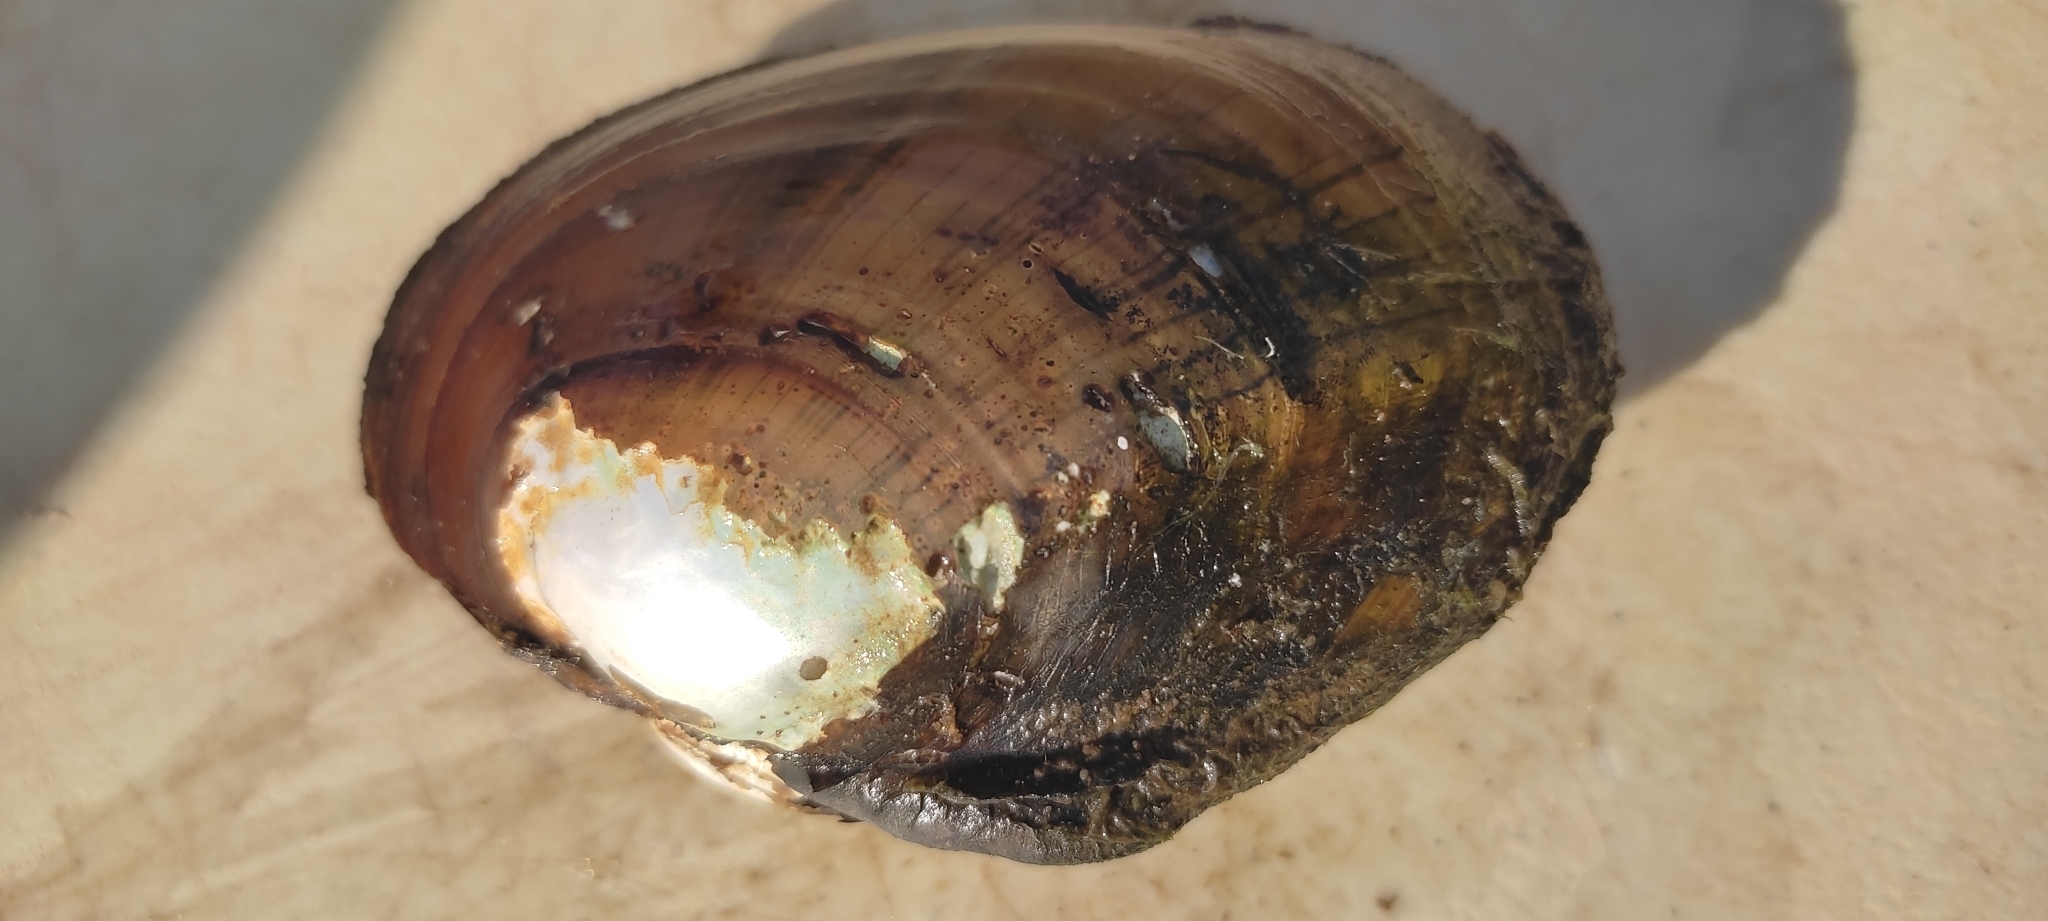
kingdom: Animalia
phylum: Mollusca
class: Bivalvia
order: Unionida
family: Unionidae
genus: Lampsilis
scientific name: Lampsilis cardium
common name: Plain pocketbook
